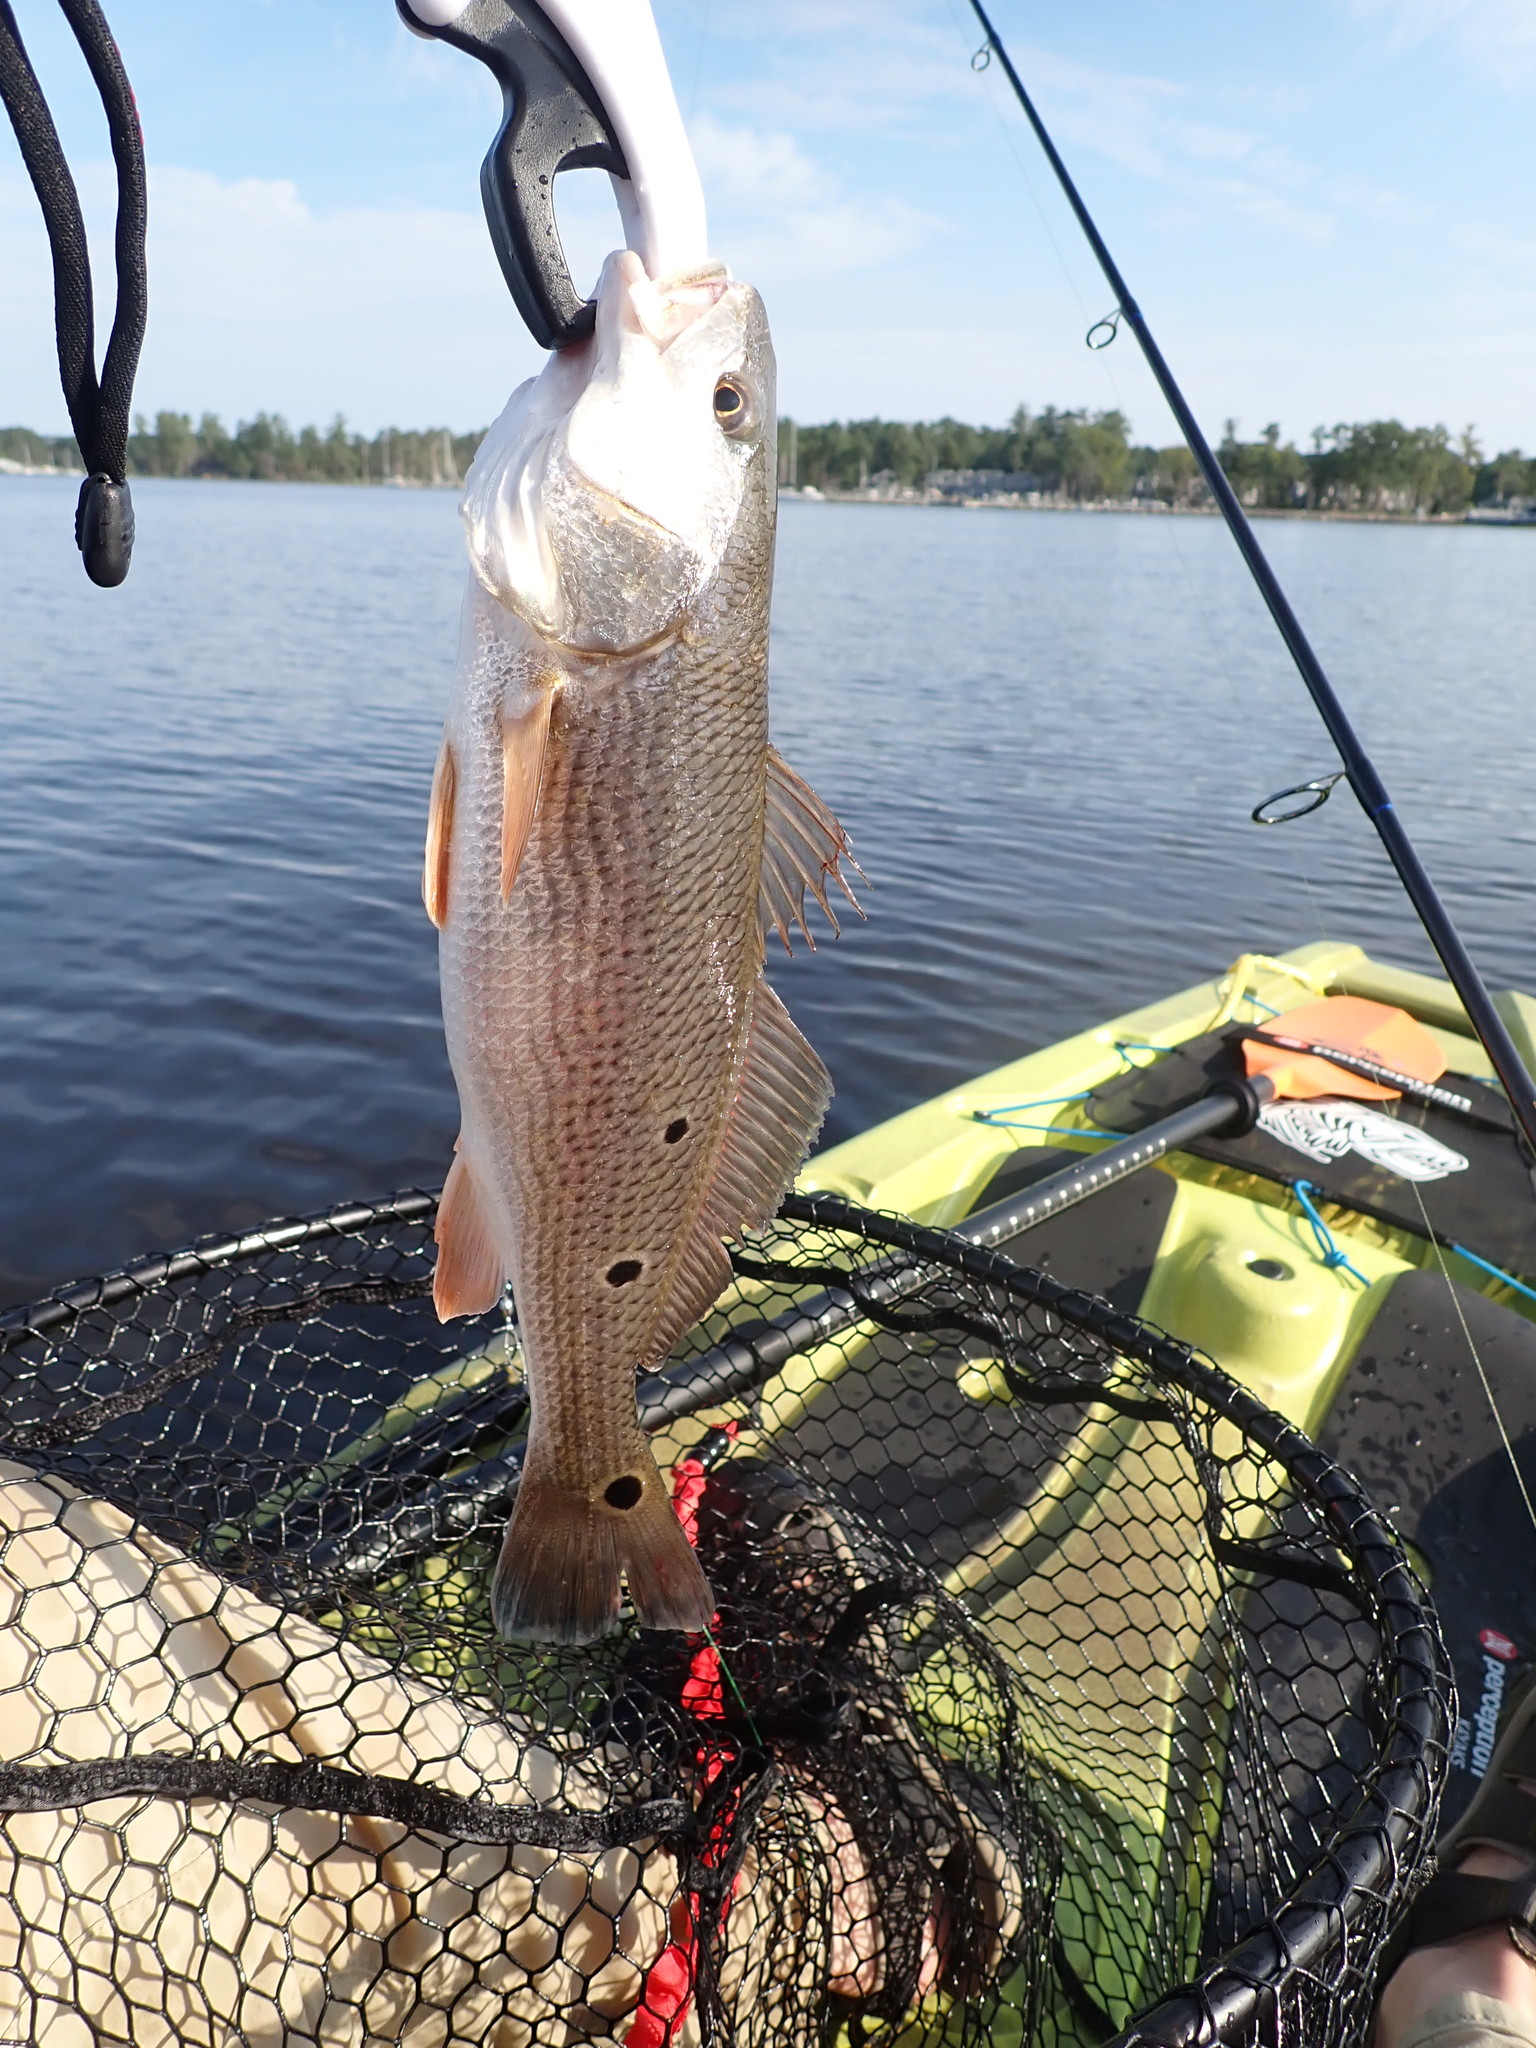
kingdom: Animalia
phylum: Chordata
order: Perciformes
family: Sciaenidae
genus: Sciaenops
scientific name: Sciaenops ocellatus
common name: Red drum
